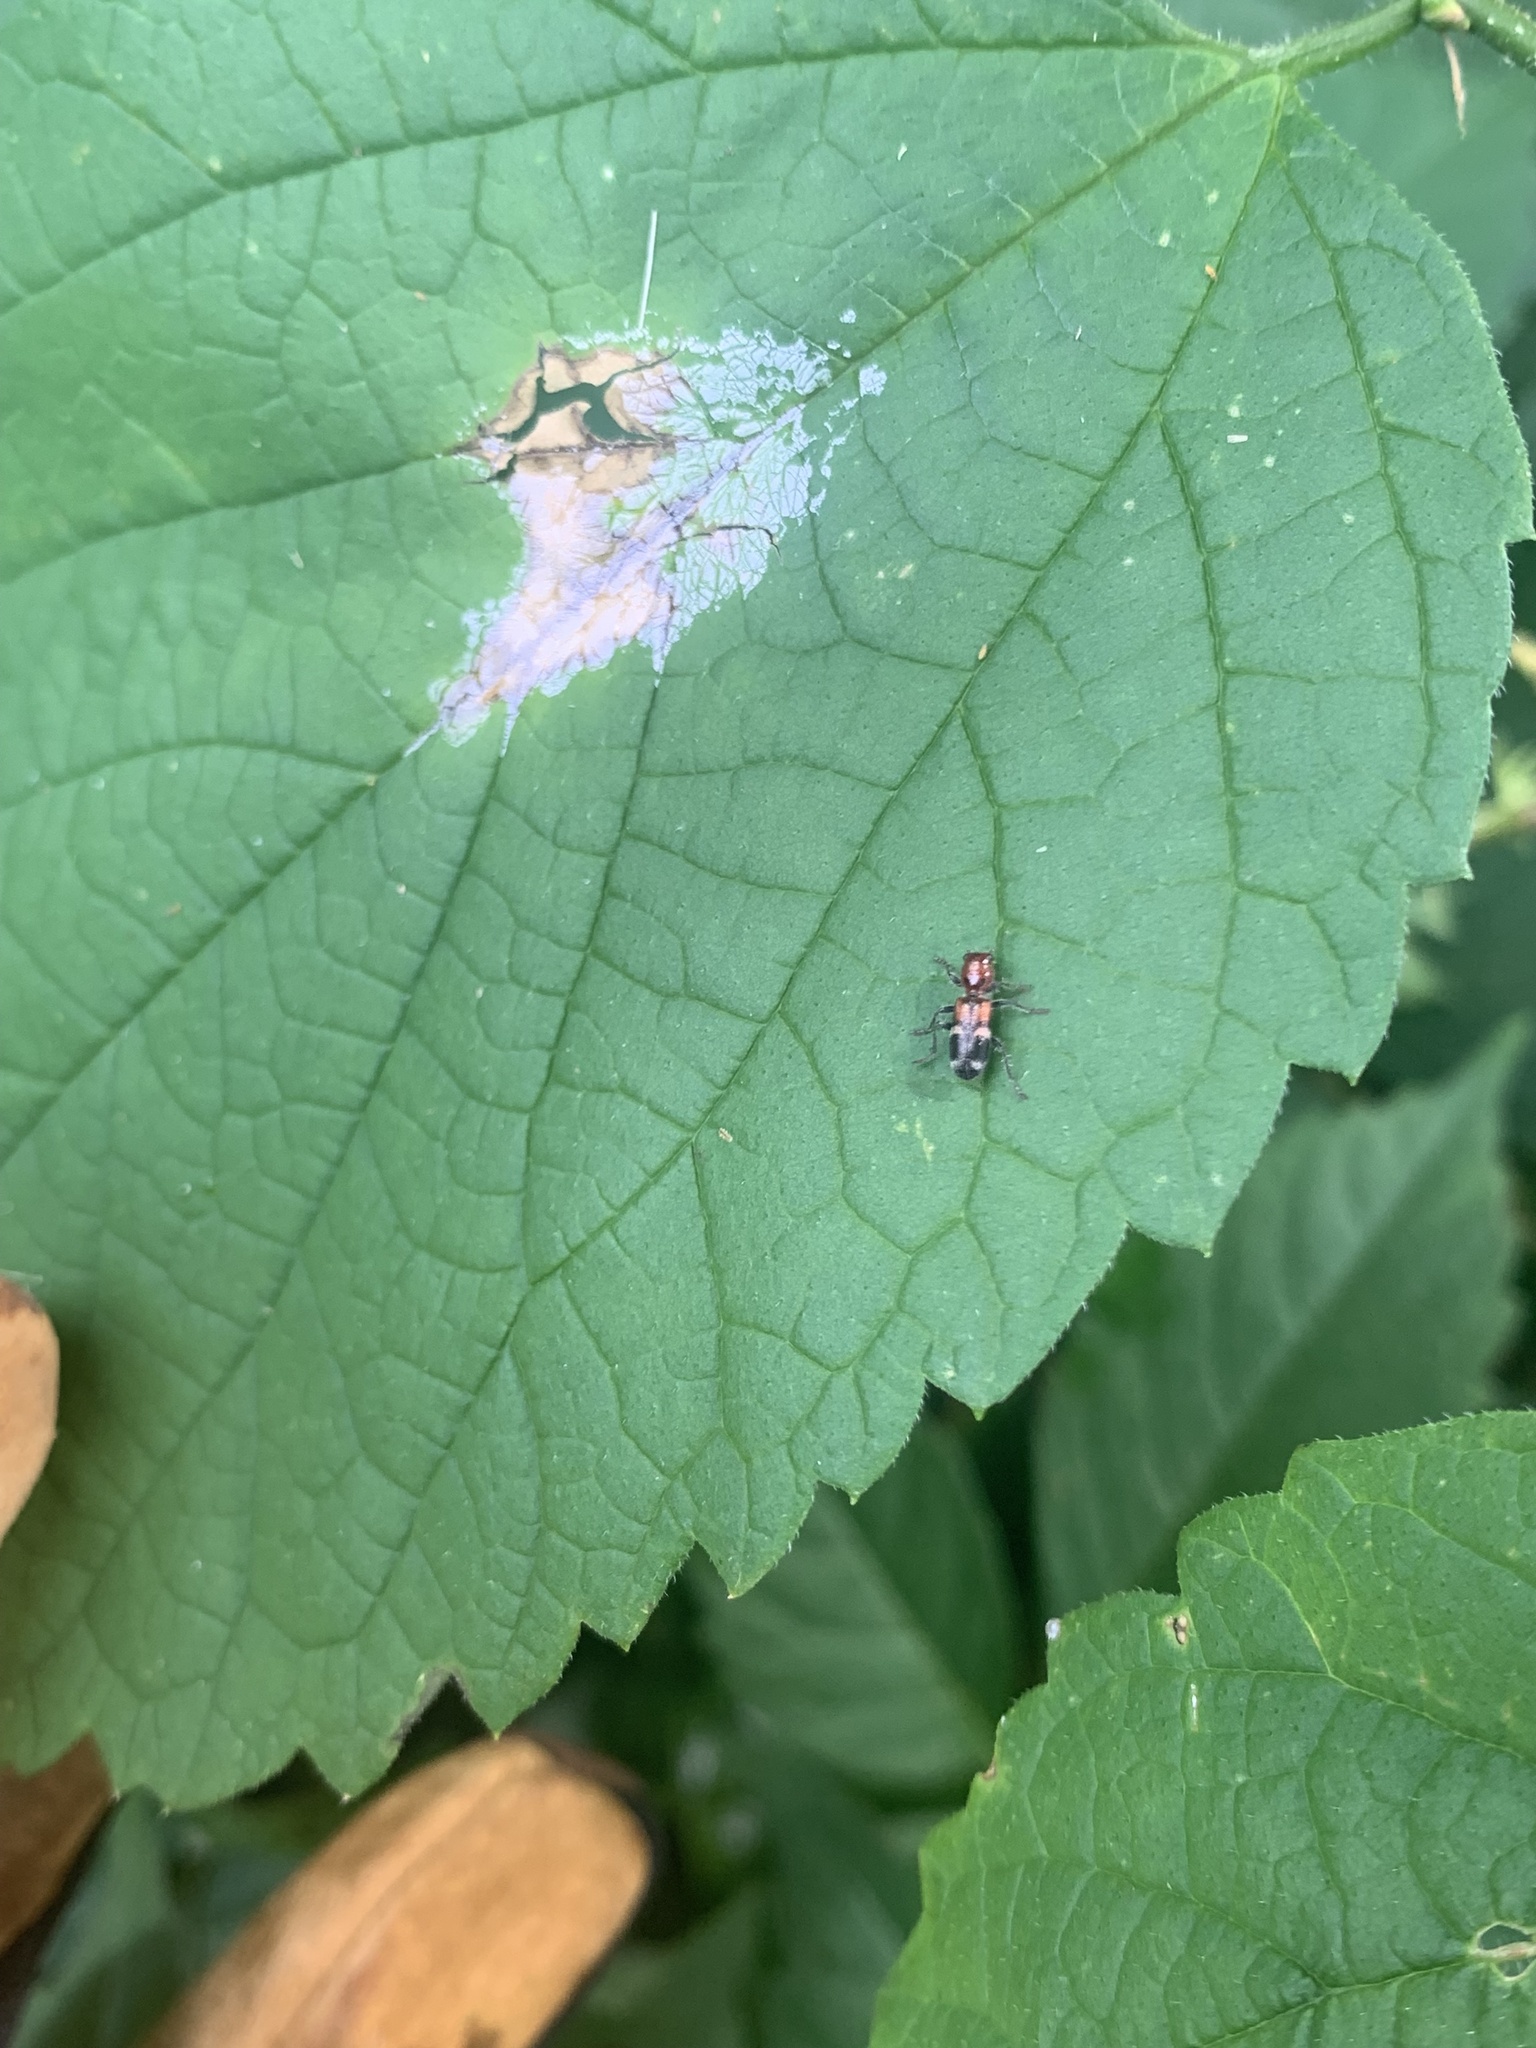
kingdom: Animalia
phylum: Arthropoda
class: Insecta
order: Coleoptera
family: Cleridae
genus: Enoclerus
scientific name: Enoclerus nigrifrons
